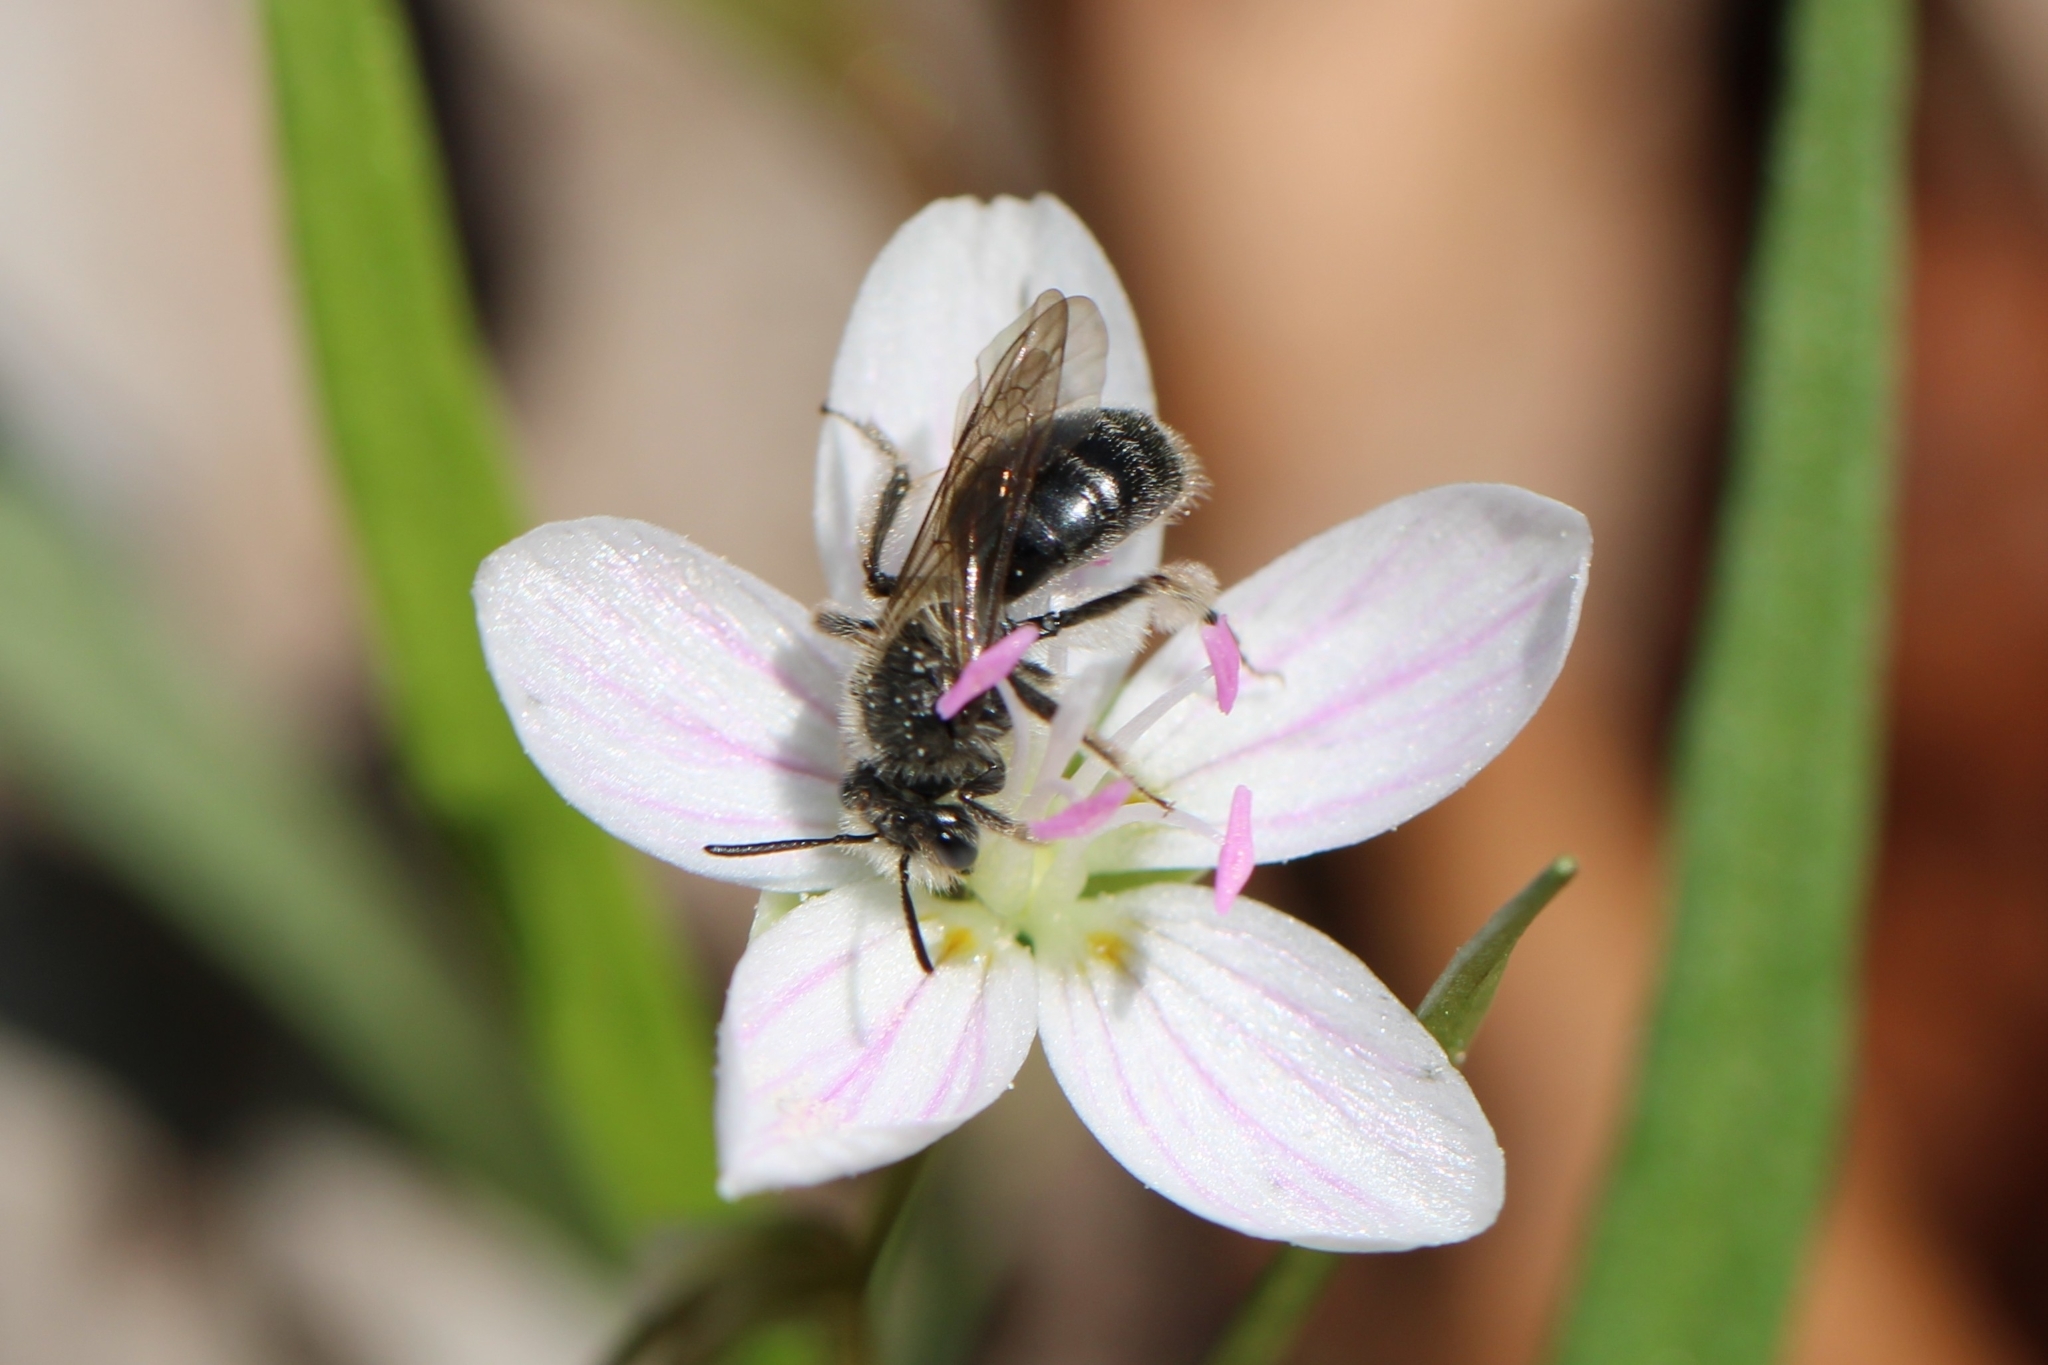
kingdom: Animalia
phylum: Arthropoda
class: Insecta
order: Hymenoptera
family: Andrenidae
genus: Andrena
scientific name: Andrena erigeniae
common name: Spring beauty miner
